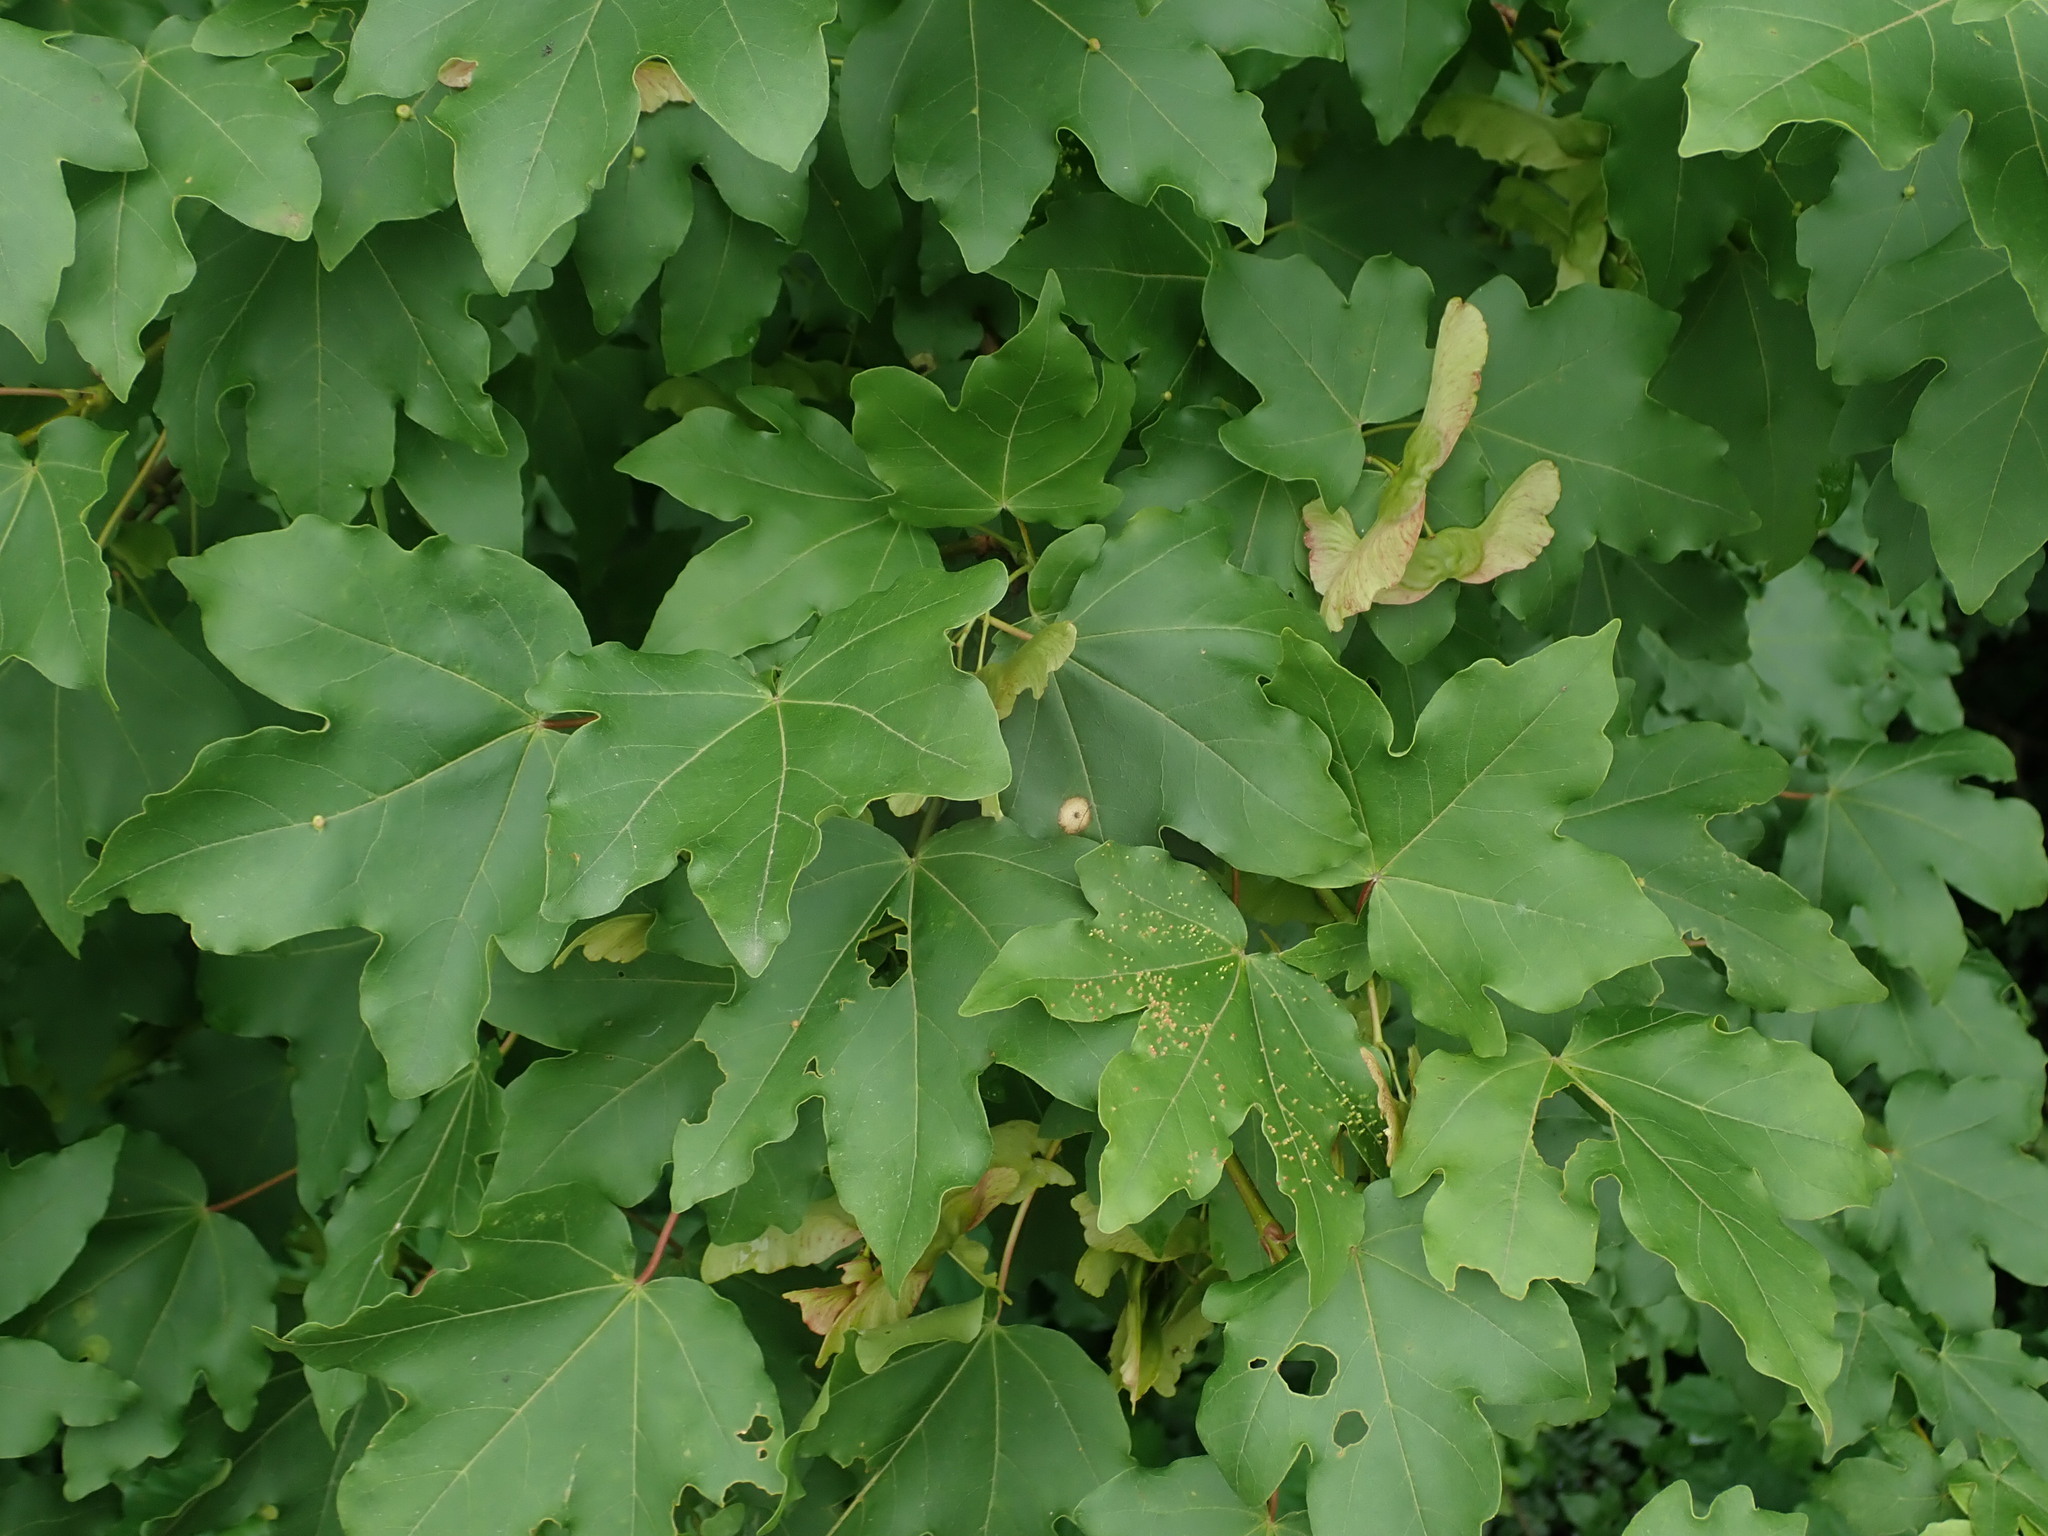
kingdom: Plantae
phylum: Tracheophyta
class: Magnoliopsida
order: Sapindales
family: Sapindaceae
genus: Acer
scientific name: Acer campestre
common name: Field maple
